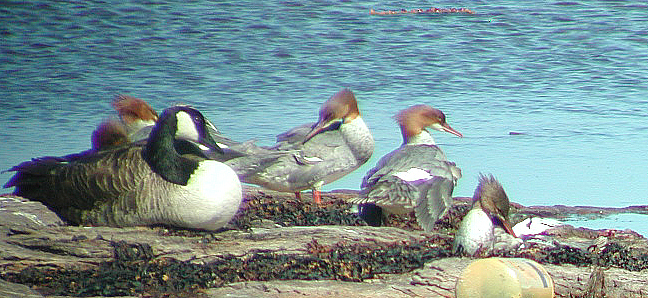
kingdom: Animalia
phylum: Chordata
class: Aves
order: Anseriformes
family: Anatidae
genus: Branta
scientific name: Branta canadensis
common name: Canada goose
